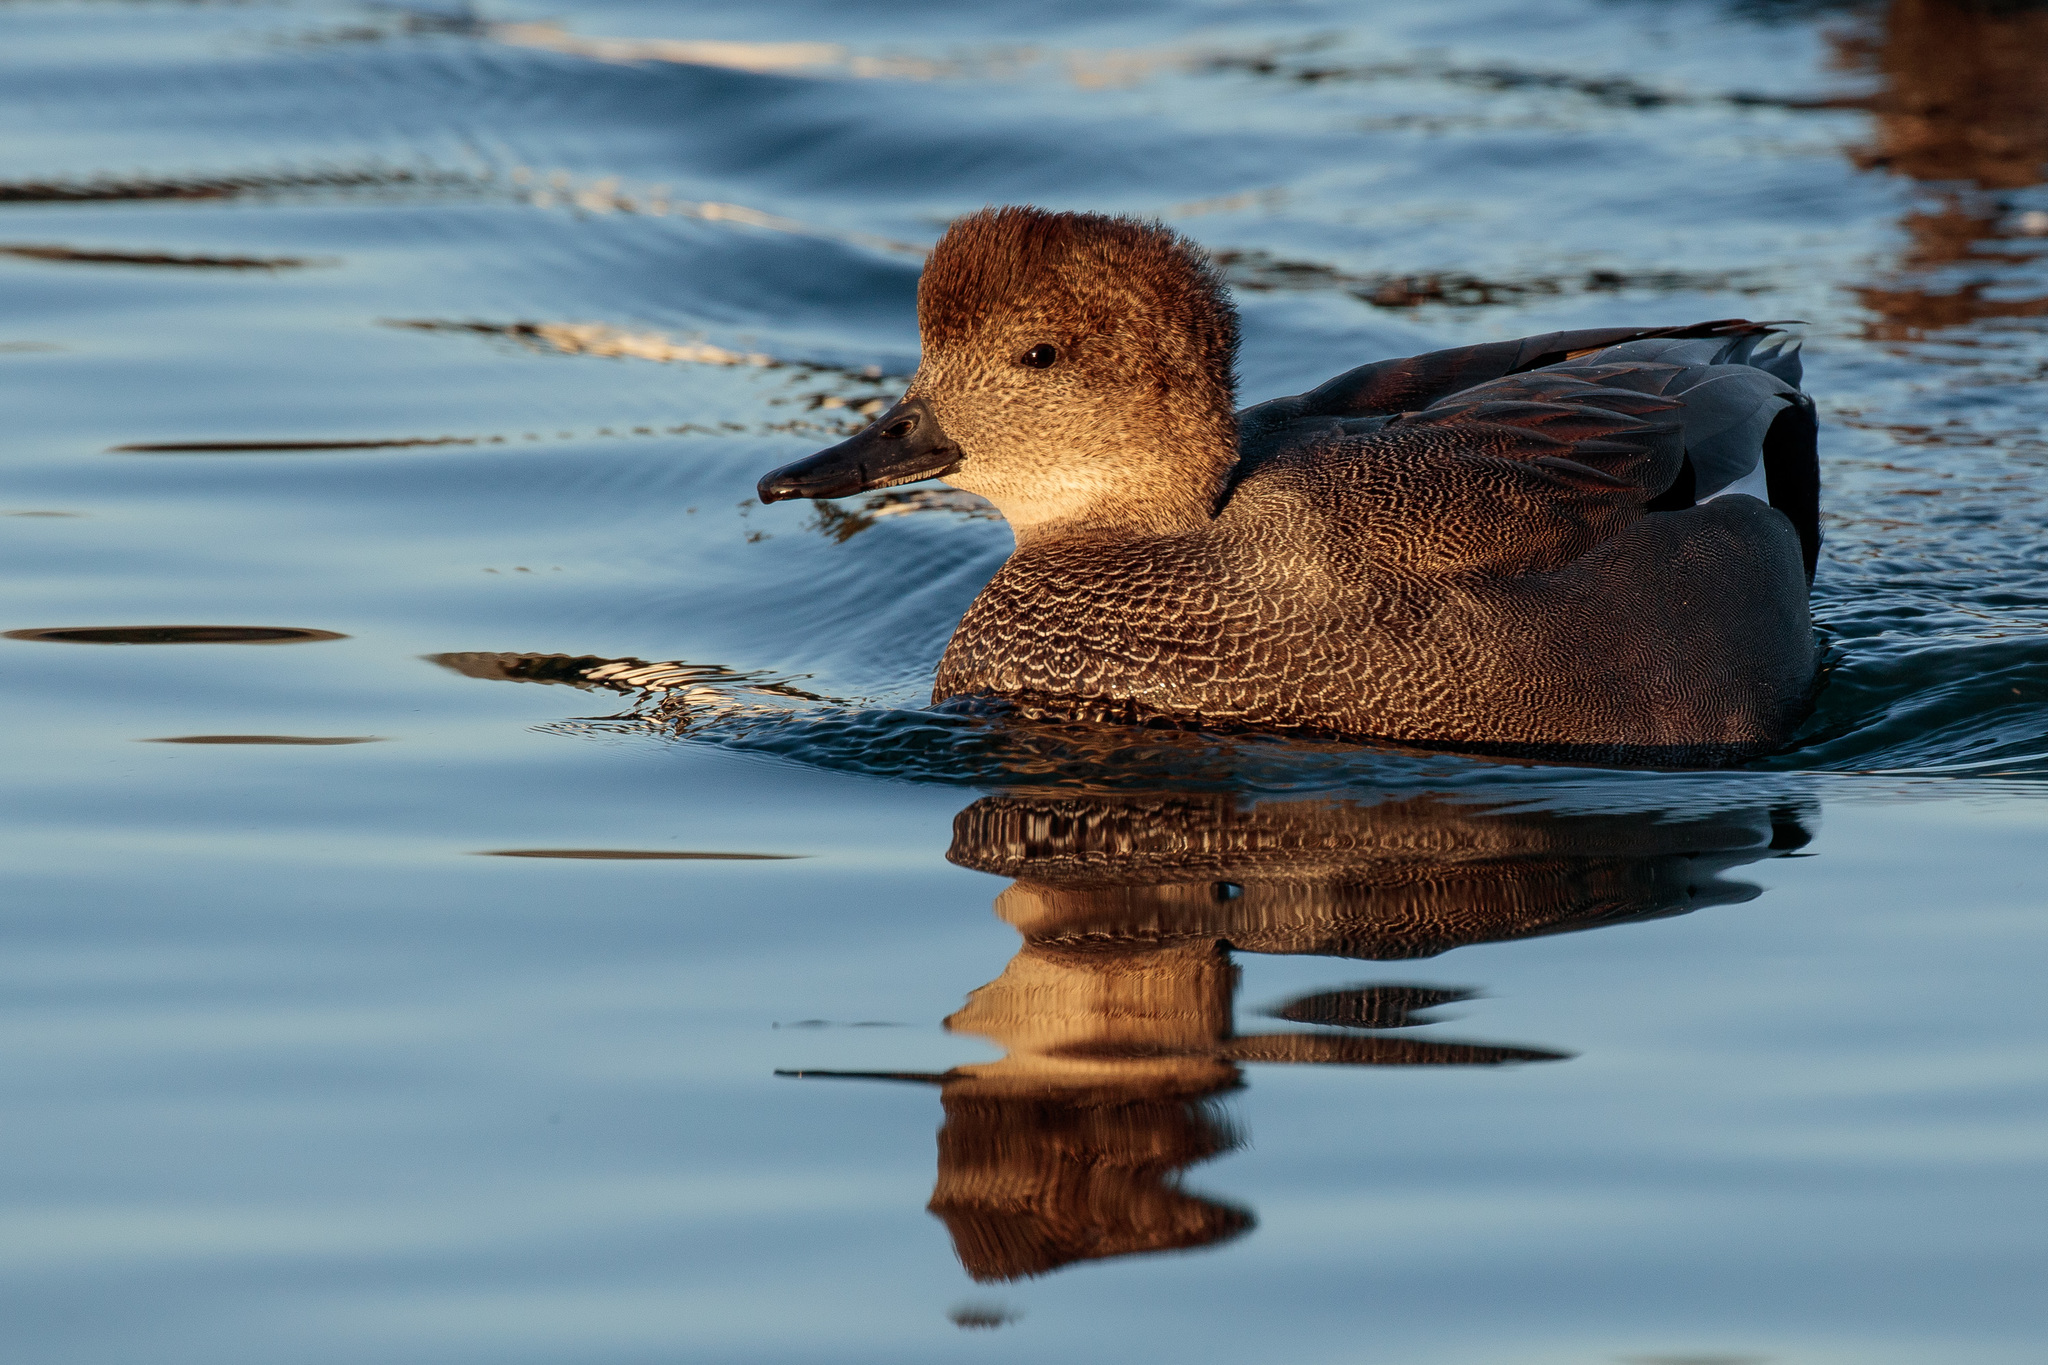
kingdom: Animalia
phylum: Chordata
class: Aves
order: Anseriformes
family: Anatidae
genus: Mareca
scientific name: Mareca strepera
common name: Gadwall
